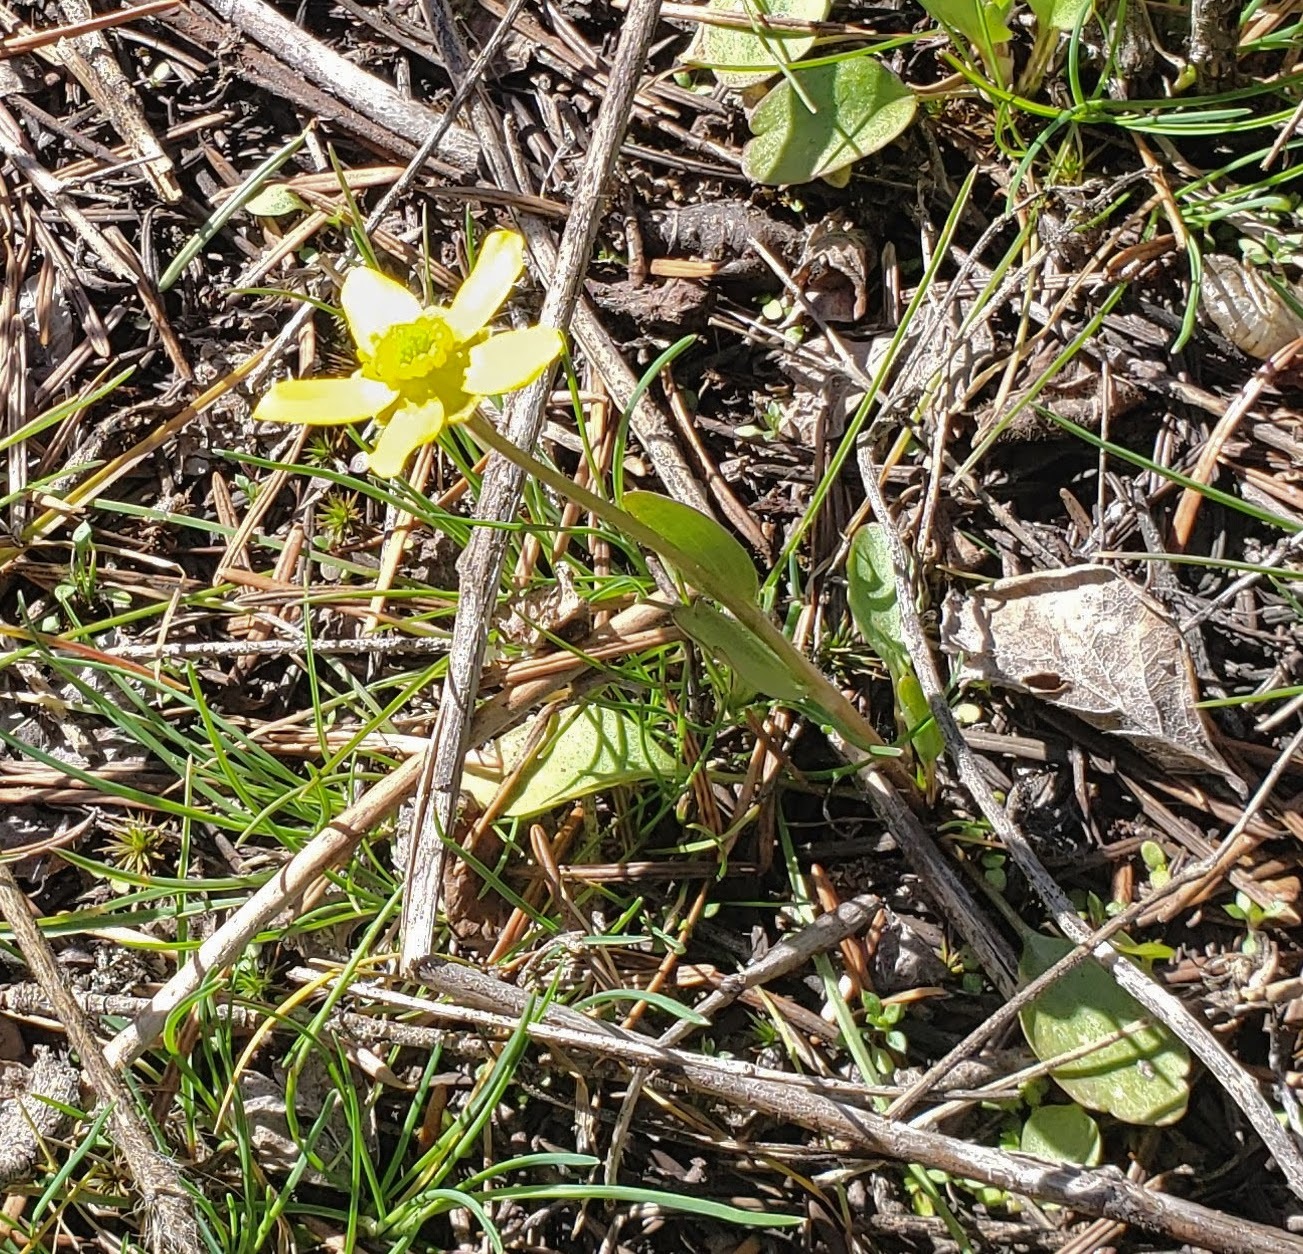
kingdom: Plantae
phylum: Tracheophyta
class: Magnoliopsida
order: Ranunculales
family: Ranunculaceae
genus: Ranunculus
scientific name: Ranunculus glaberrimus
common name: Sagebrush buttercup
